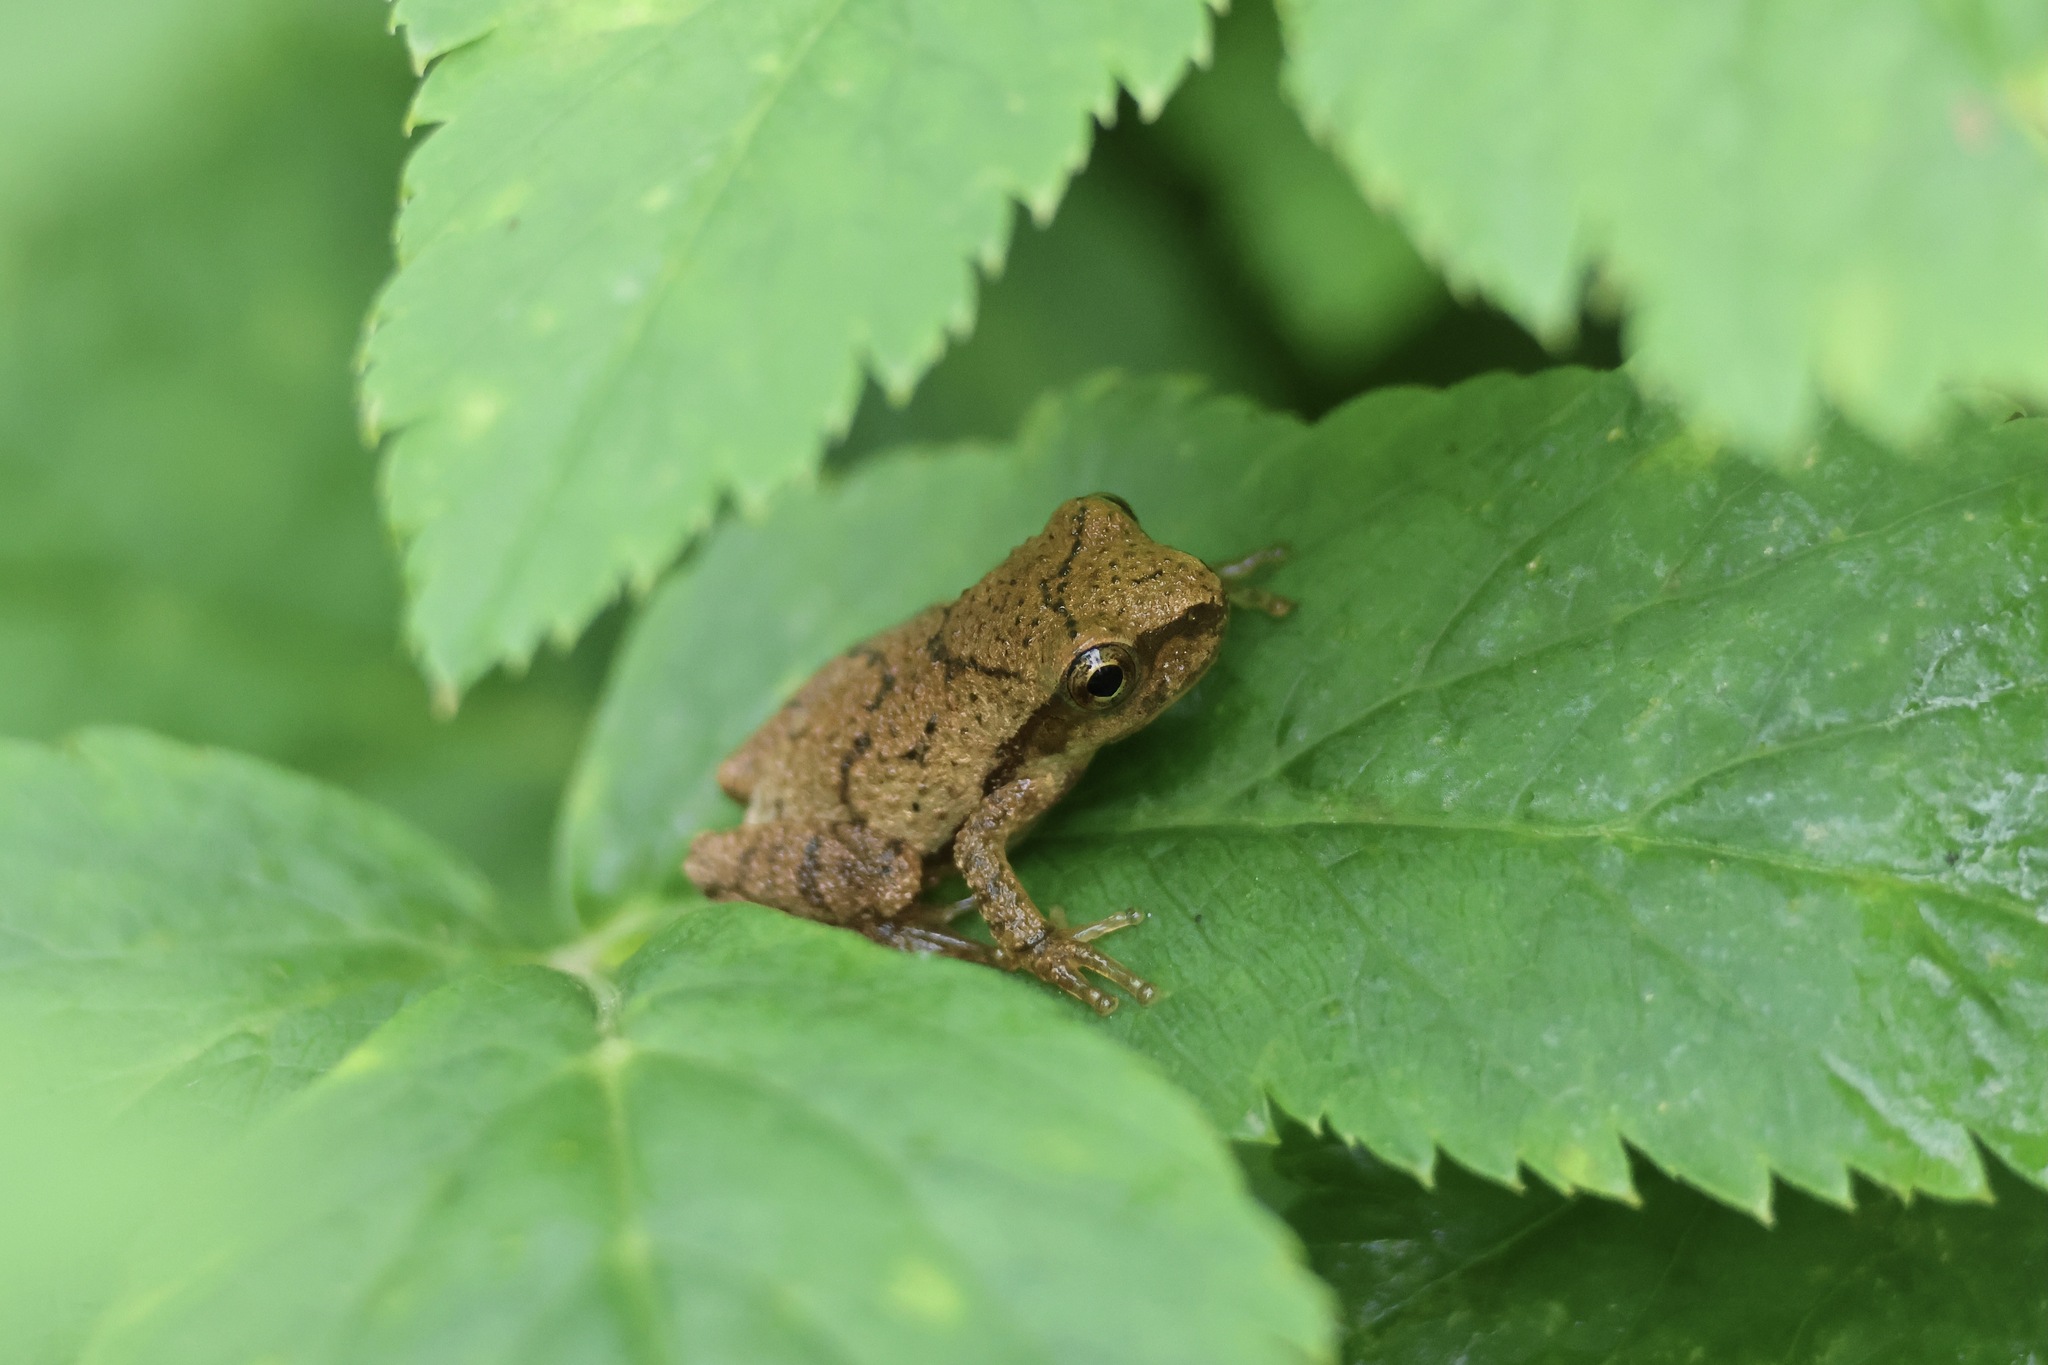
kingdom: Animalia
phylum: Chordata
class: Amphibia
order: Anura
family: Hylidae
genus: Pseudacris
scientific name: Pseudacris crucifer
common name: Spring peeper
